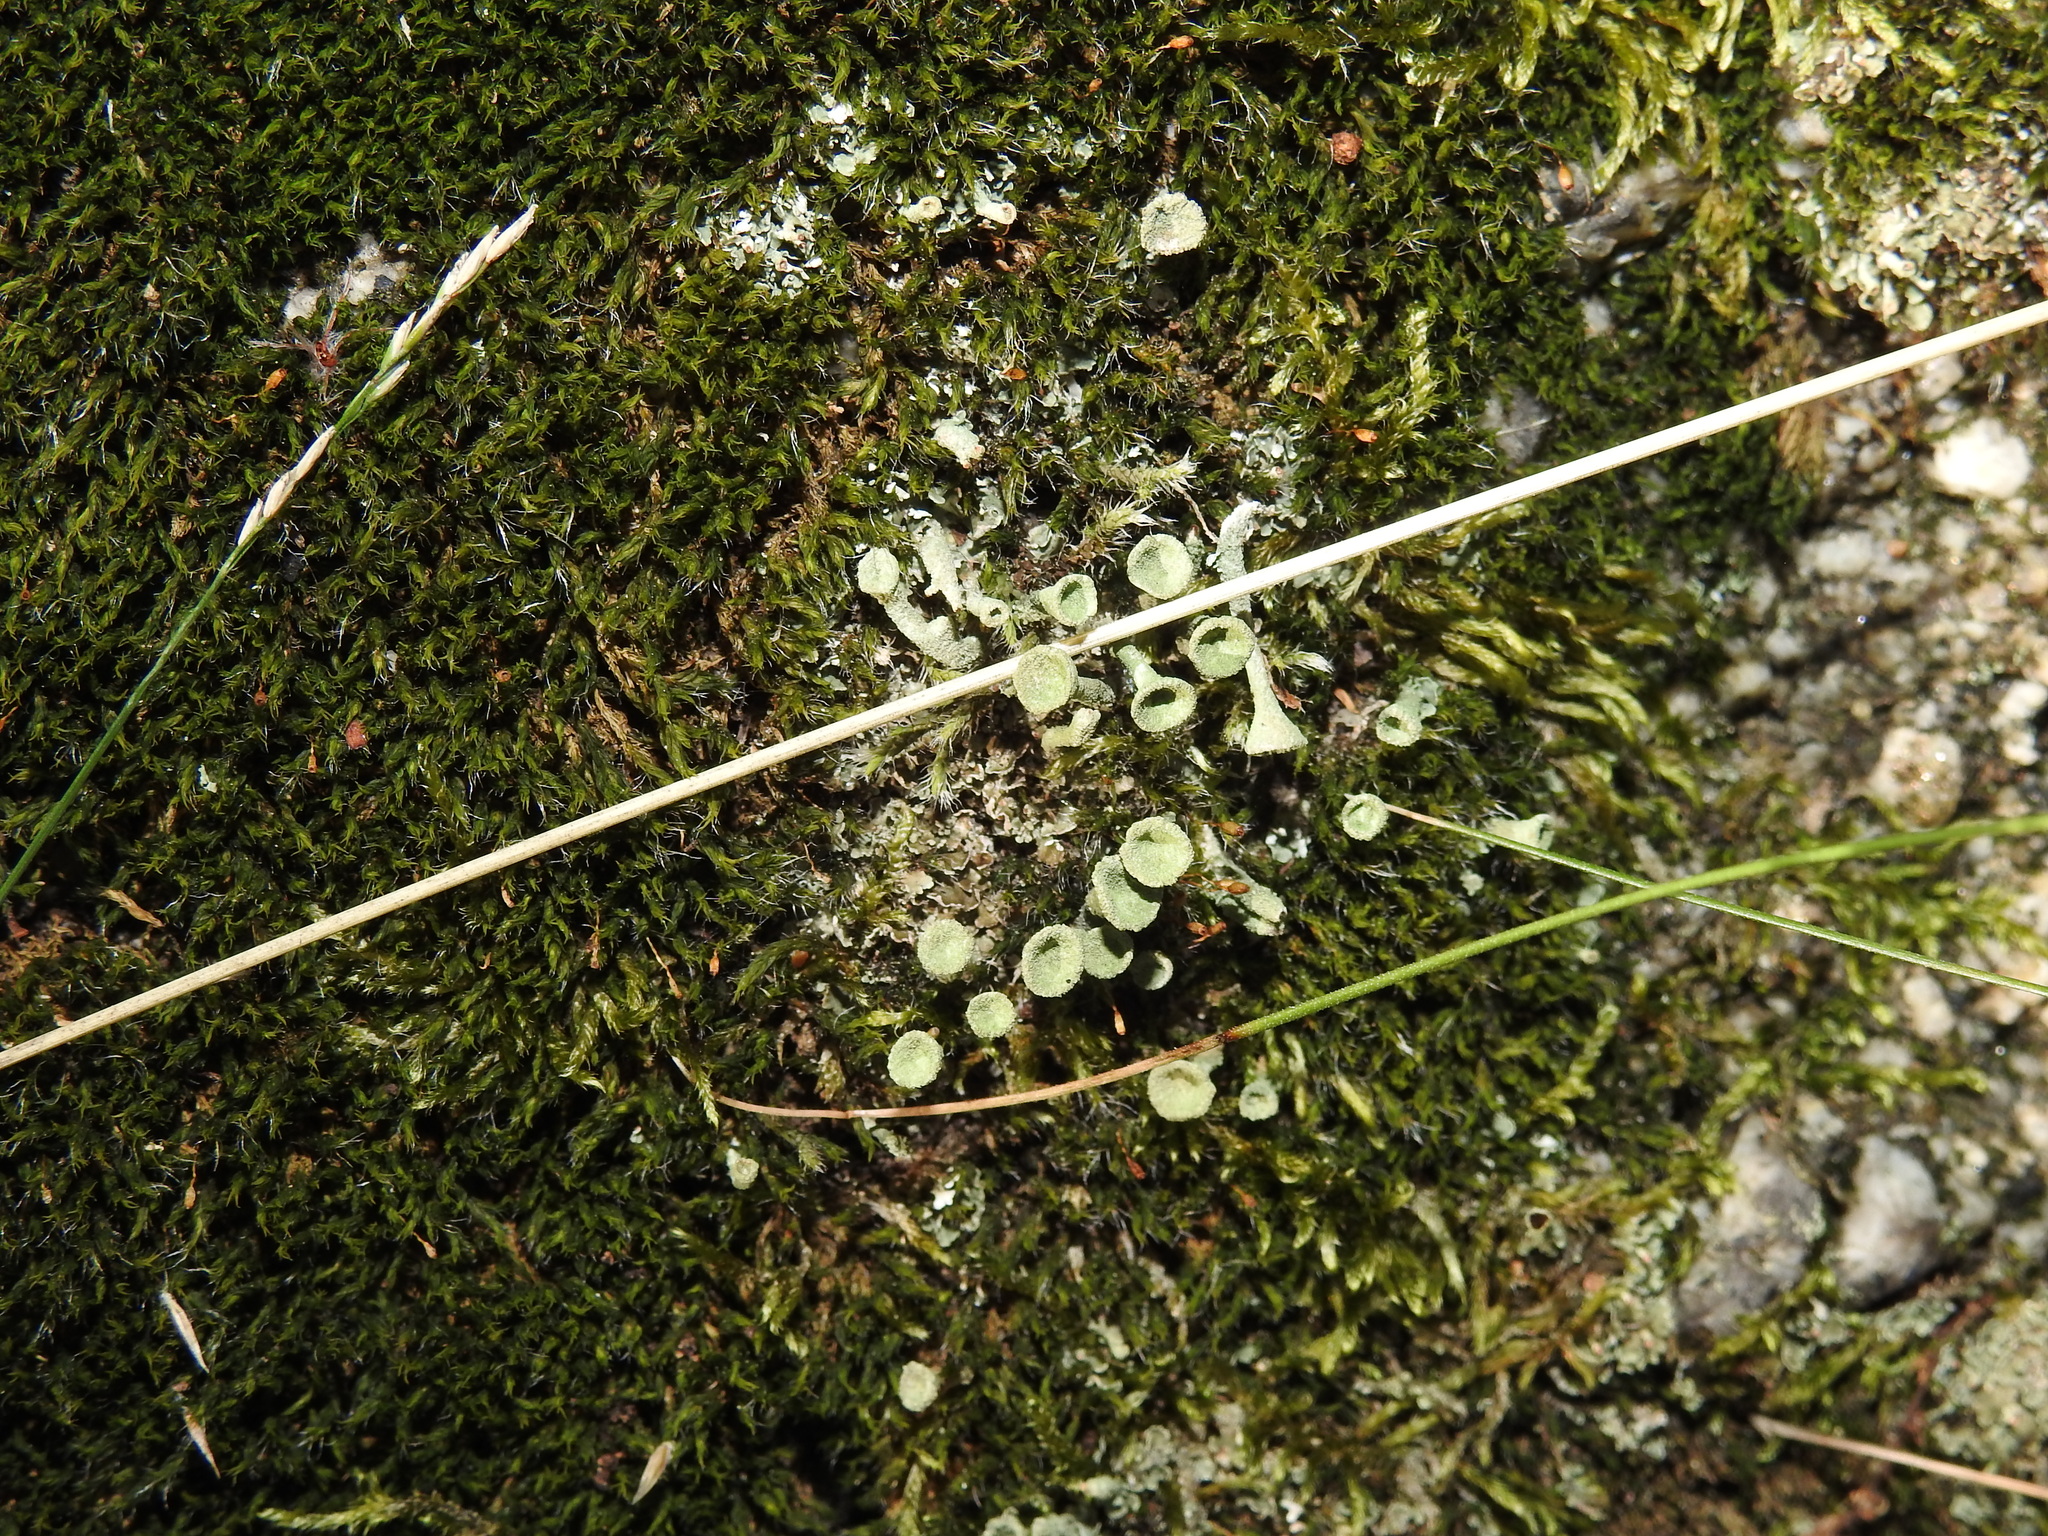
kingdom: Fungi
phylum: Ascomycota
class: Lecanoromycetes
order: Lecanorales
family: Cladoniaceae
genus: Cladonia
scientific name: Cladonia fimbriata
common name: Powdered trumpet lichen
